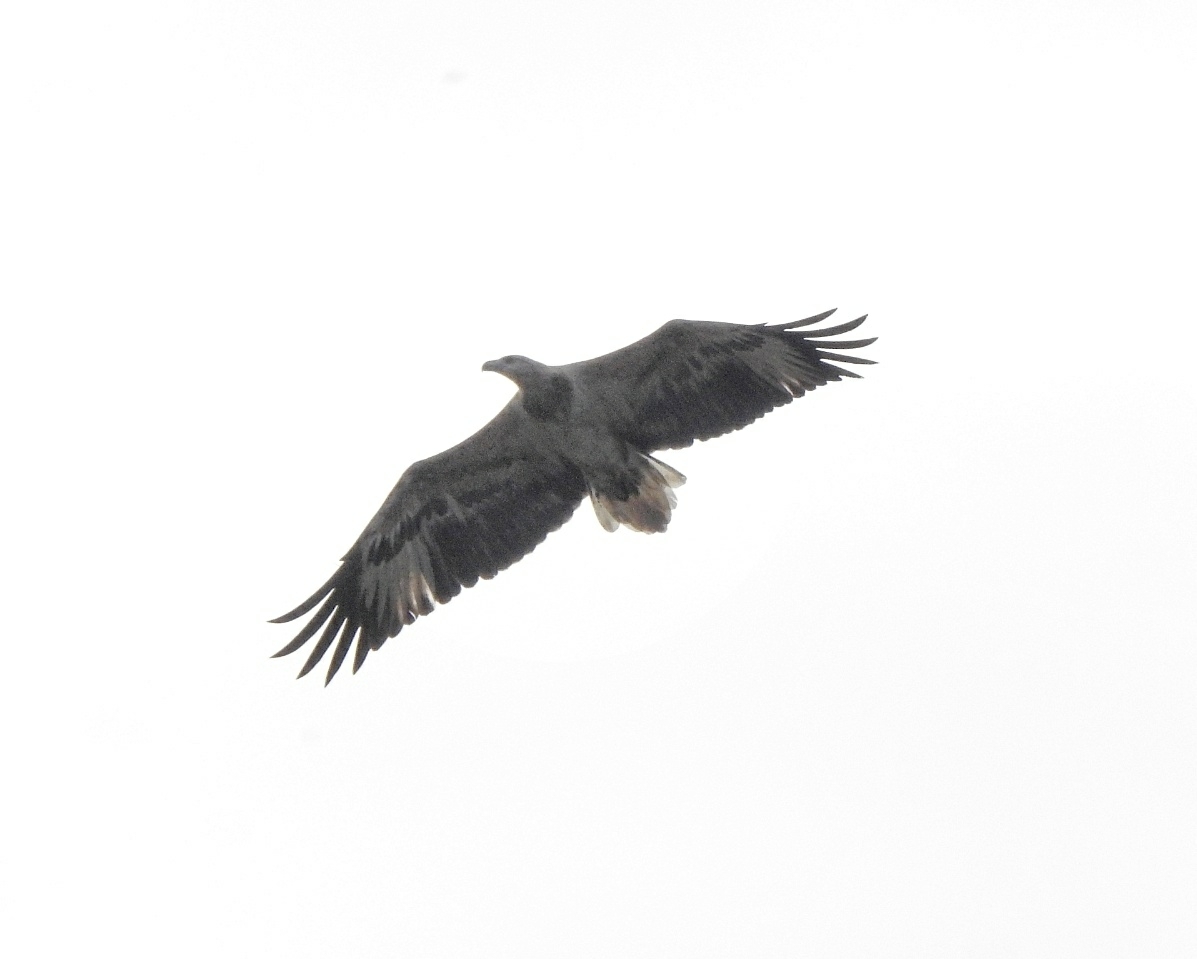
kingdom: Animalia
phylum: Chordata
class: Aves
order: Accipitriformes
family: Accipitridae
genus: Haliaeetus
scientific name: Haliaeetus leucogaster
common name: White-bellied sea eagle
